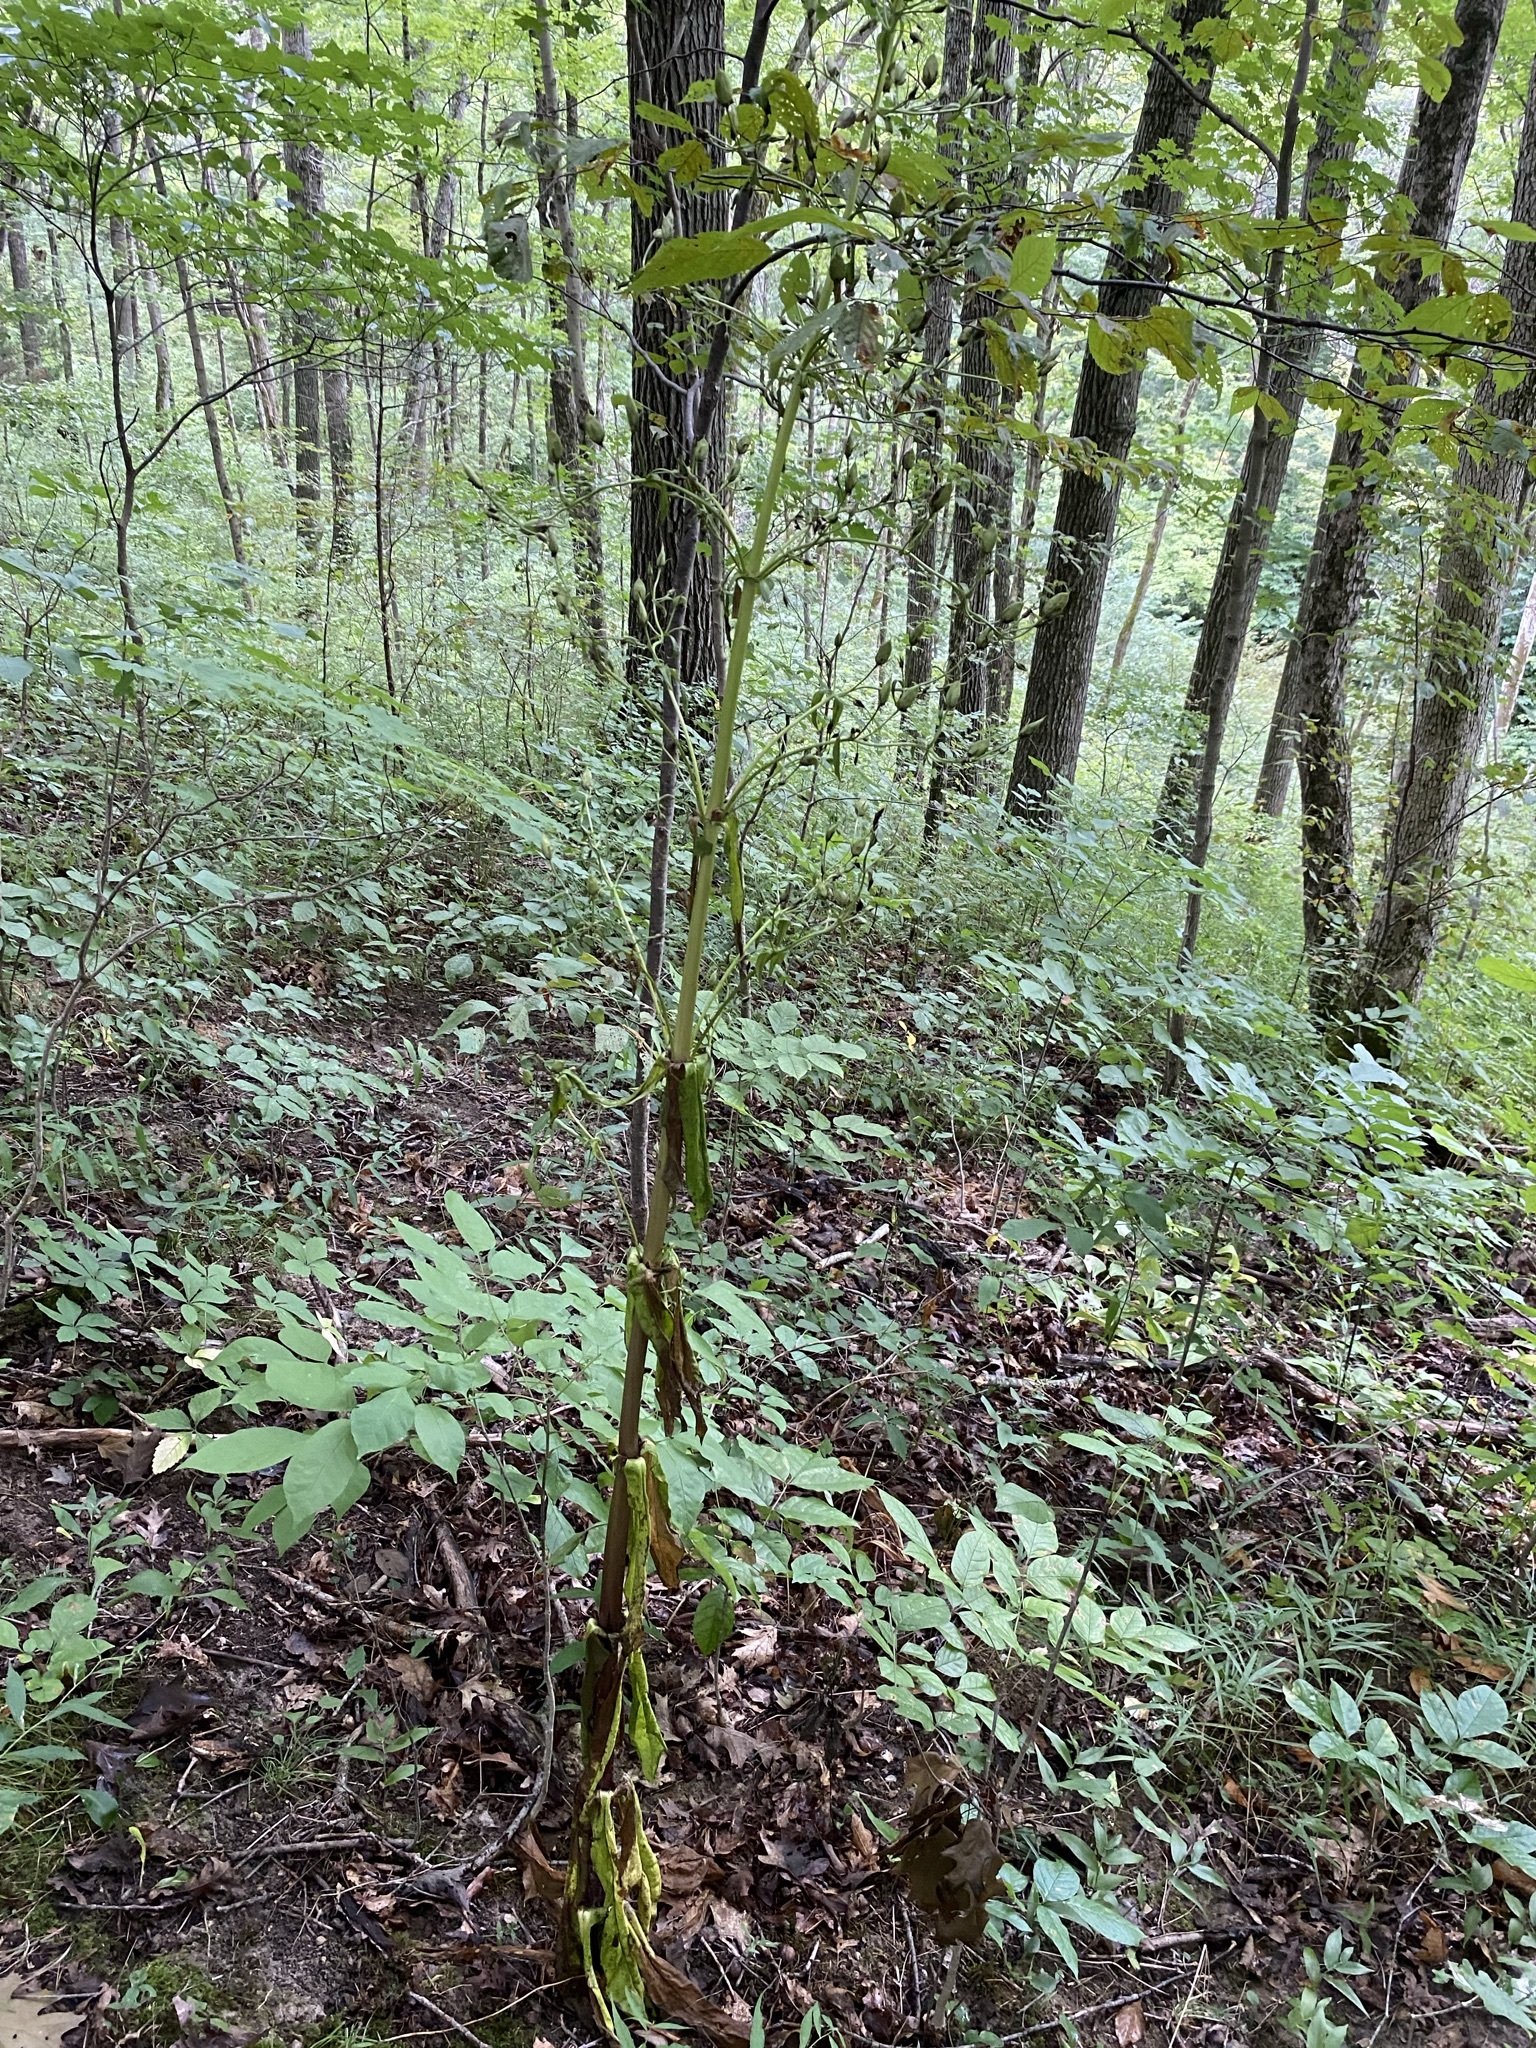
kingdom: Plantae
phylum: Tracheophyta
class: Magnoliopsida
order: Gentianales
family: Gentianaceae
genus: Frasera
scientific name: Frasera caroliniensis
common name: American columbo
